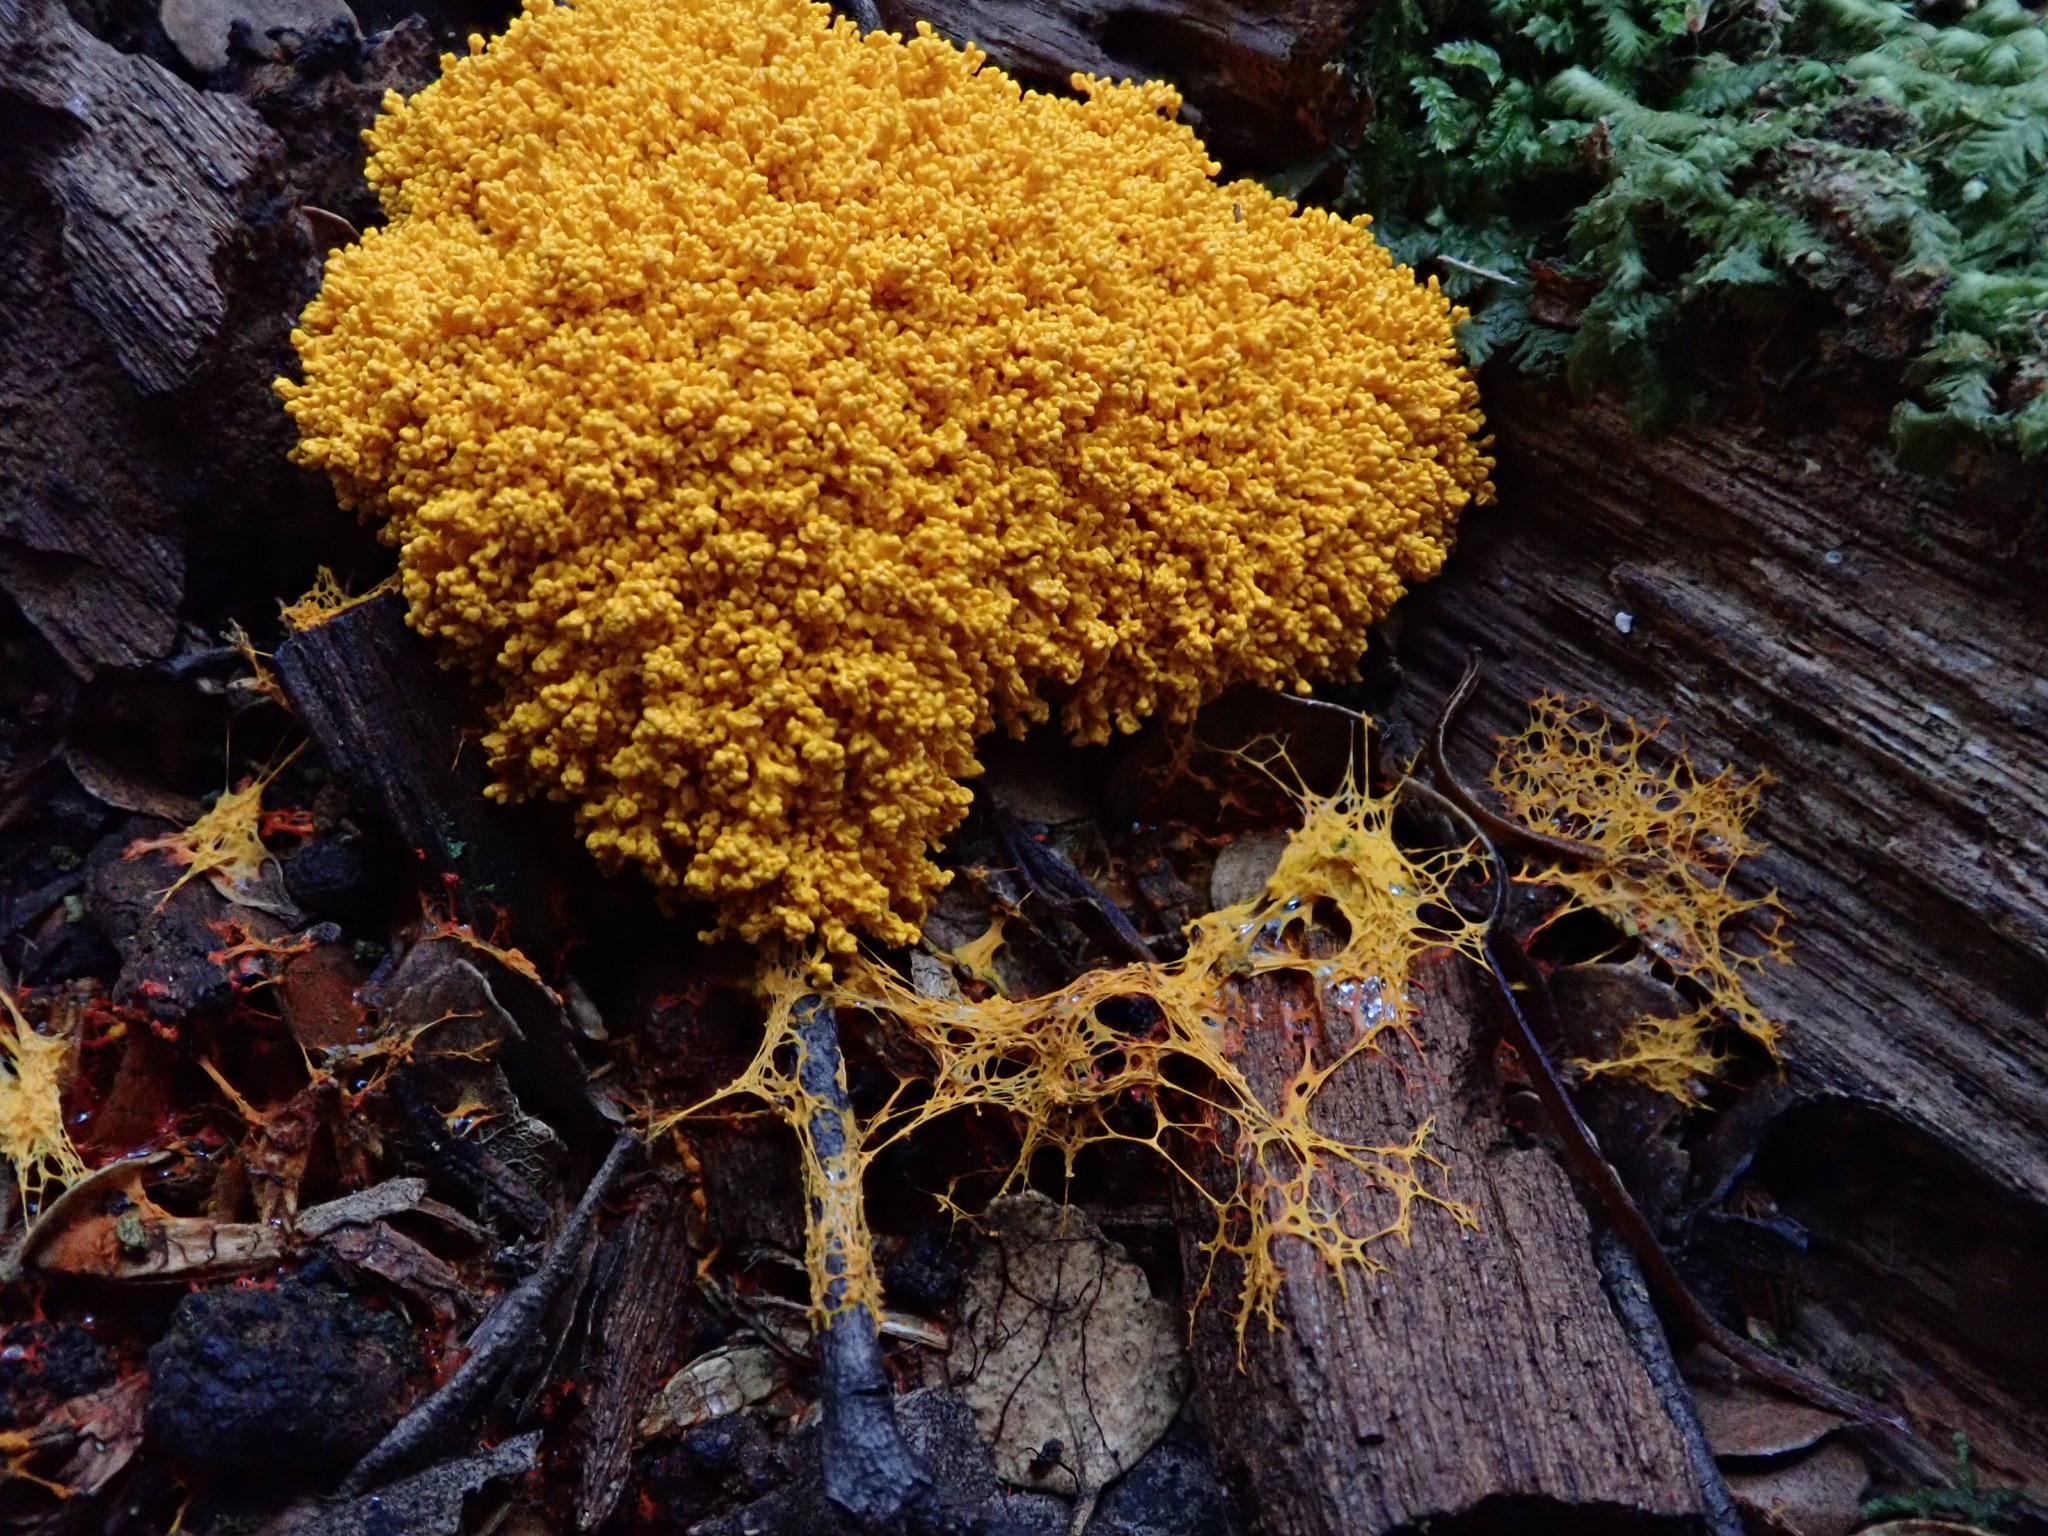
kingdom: Protozoa
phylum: Mycetozoa
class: Myxomycetes
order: Physarales
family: Physaraceae
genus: Fuligo
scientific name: Fuligo septica
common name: Dog vomit slime mold
